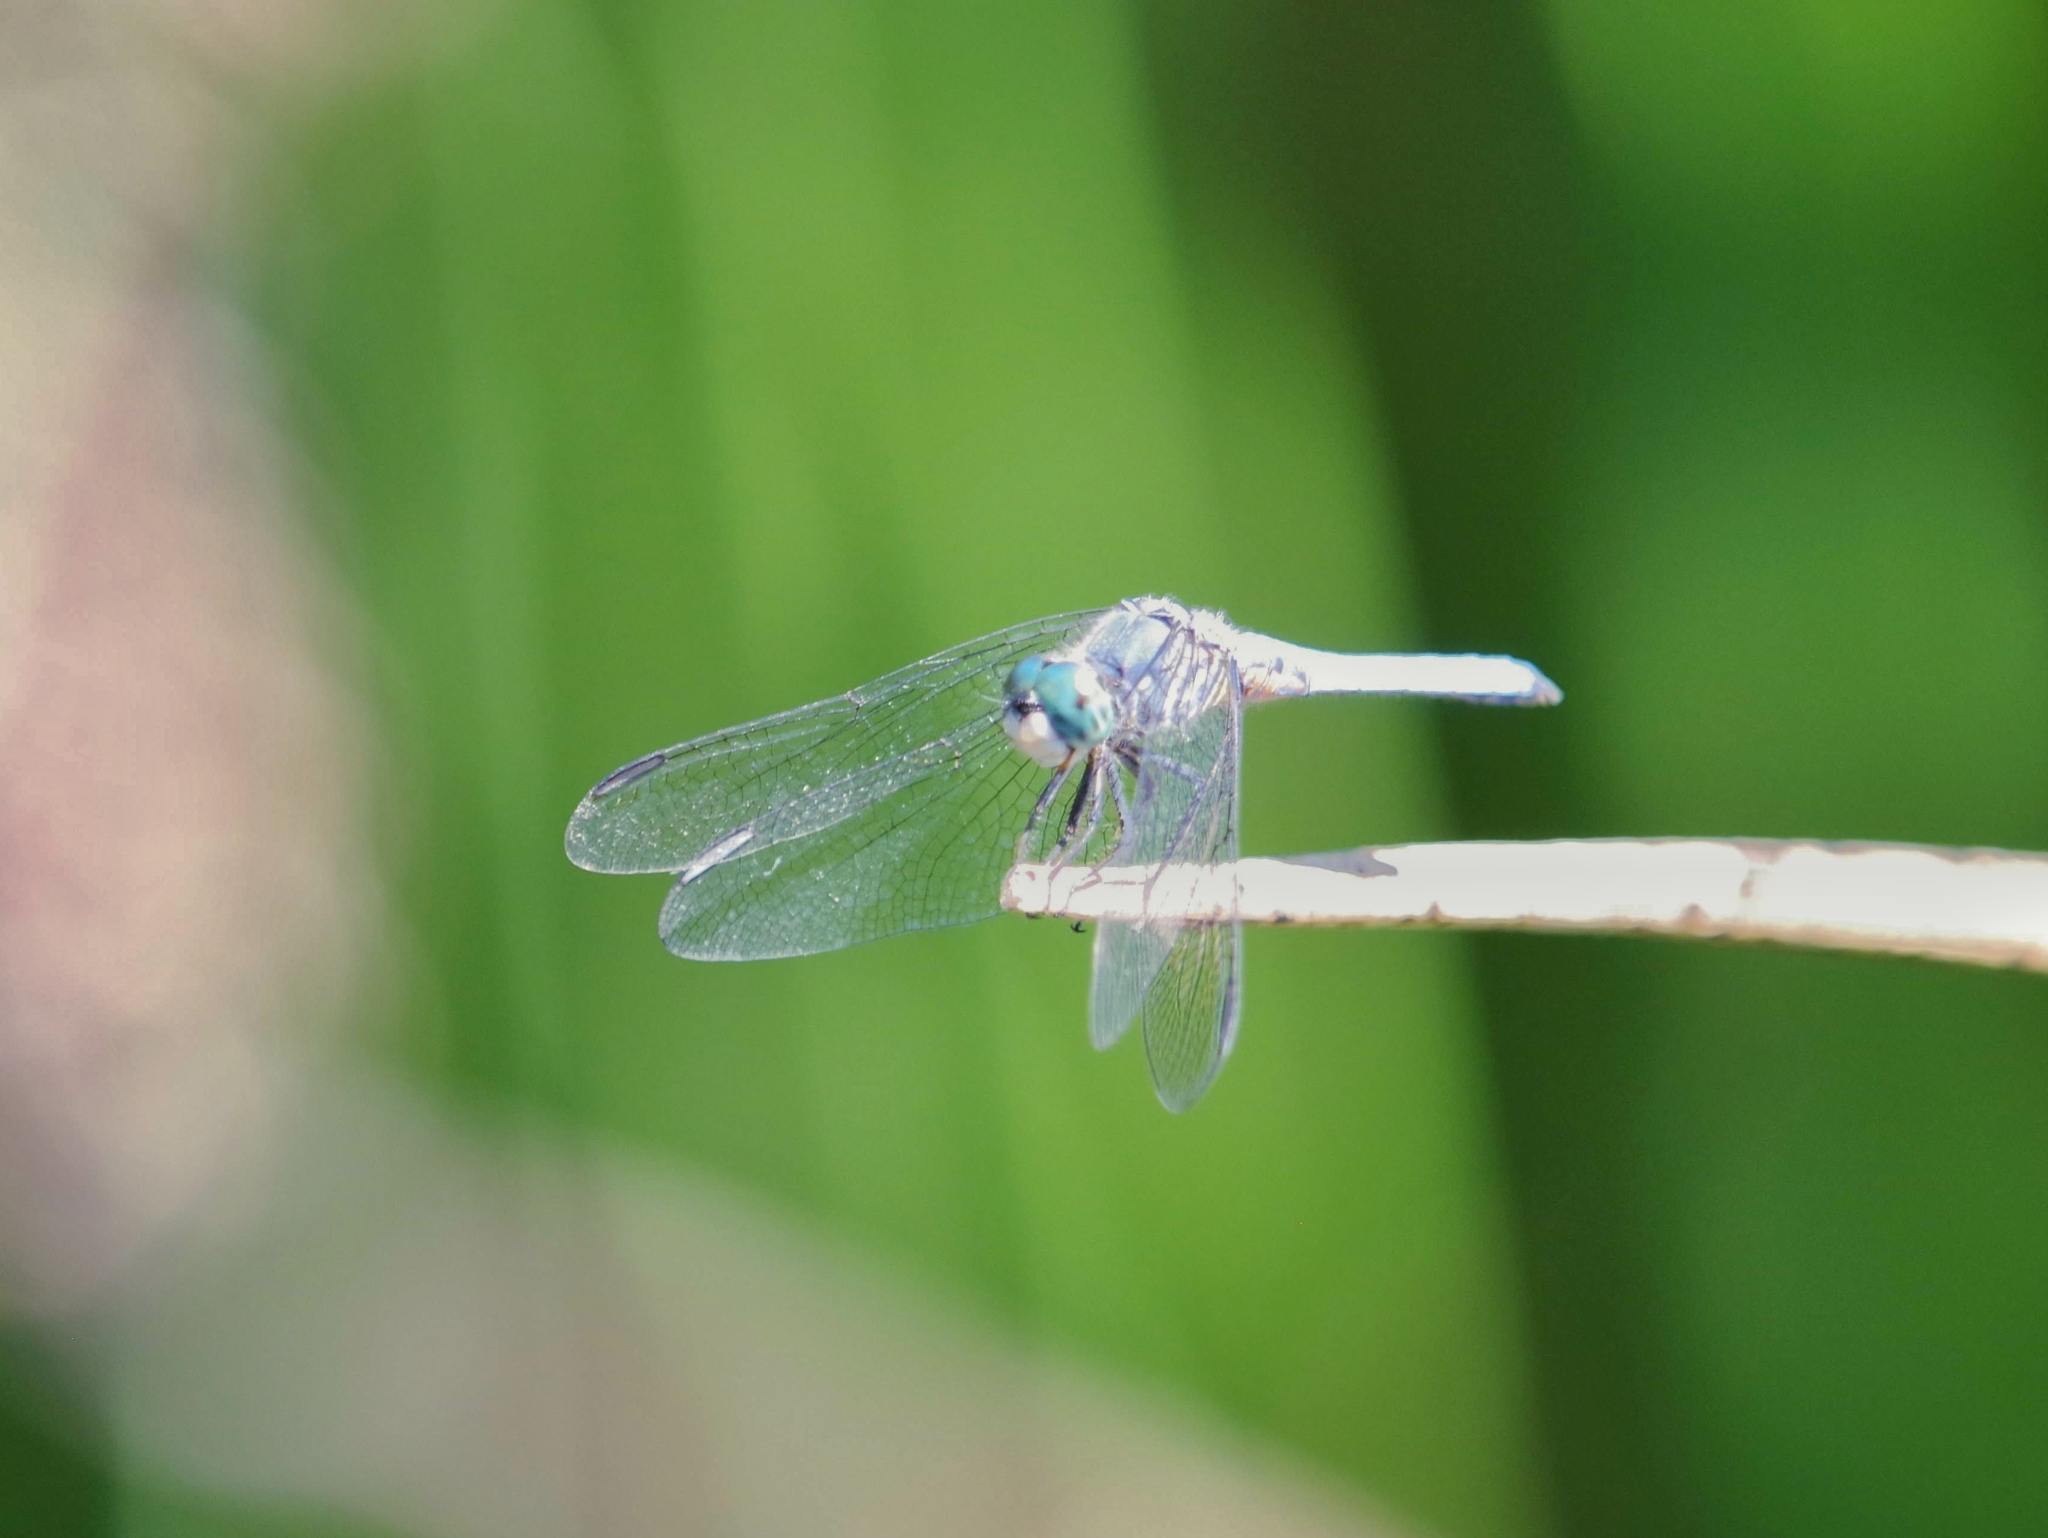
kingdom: Animalia
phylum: Arthropoda
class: Insecta
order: Odonata
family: Libellulidae
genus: Pachydiplax
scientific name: Pachydiplax longipennis
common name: Blue dasher
